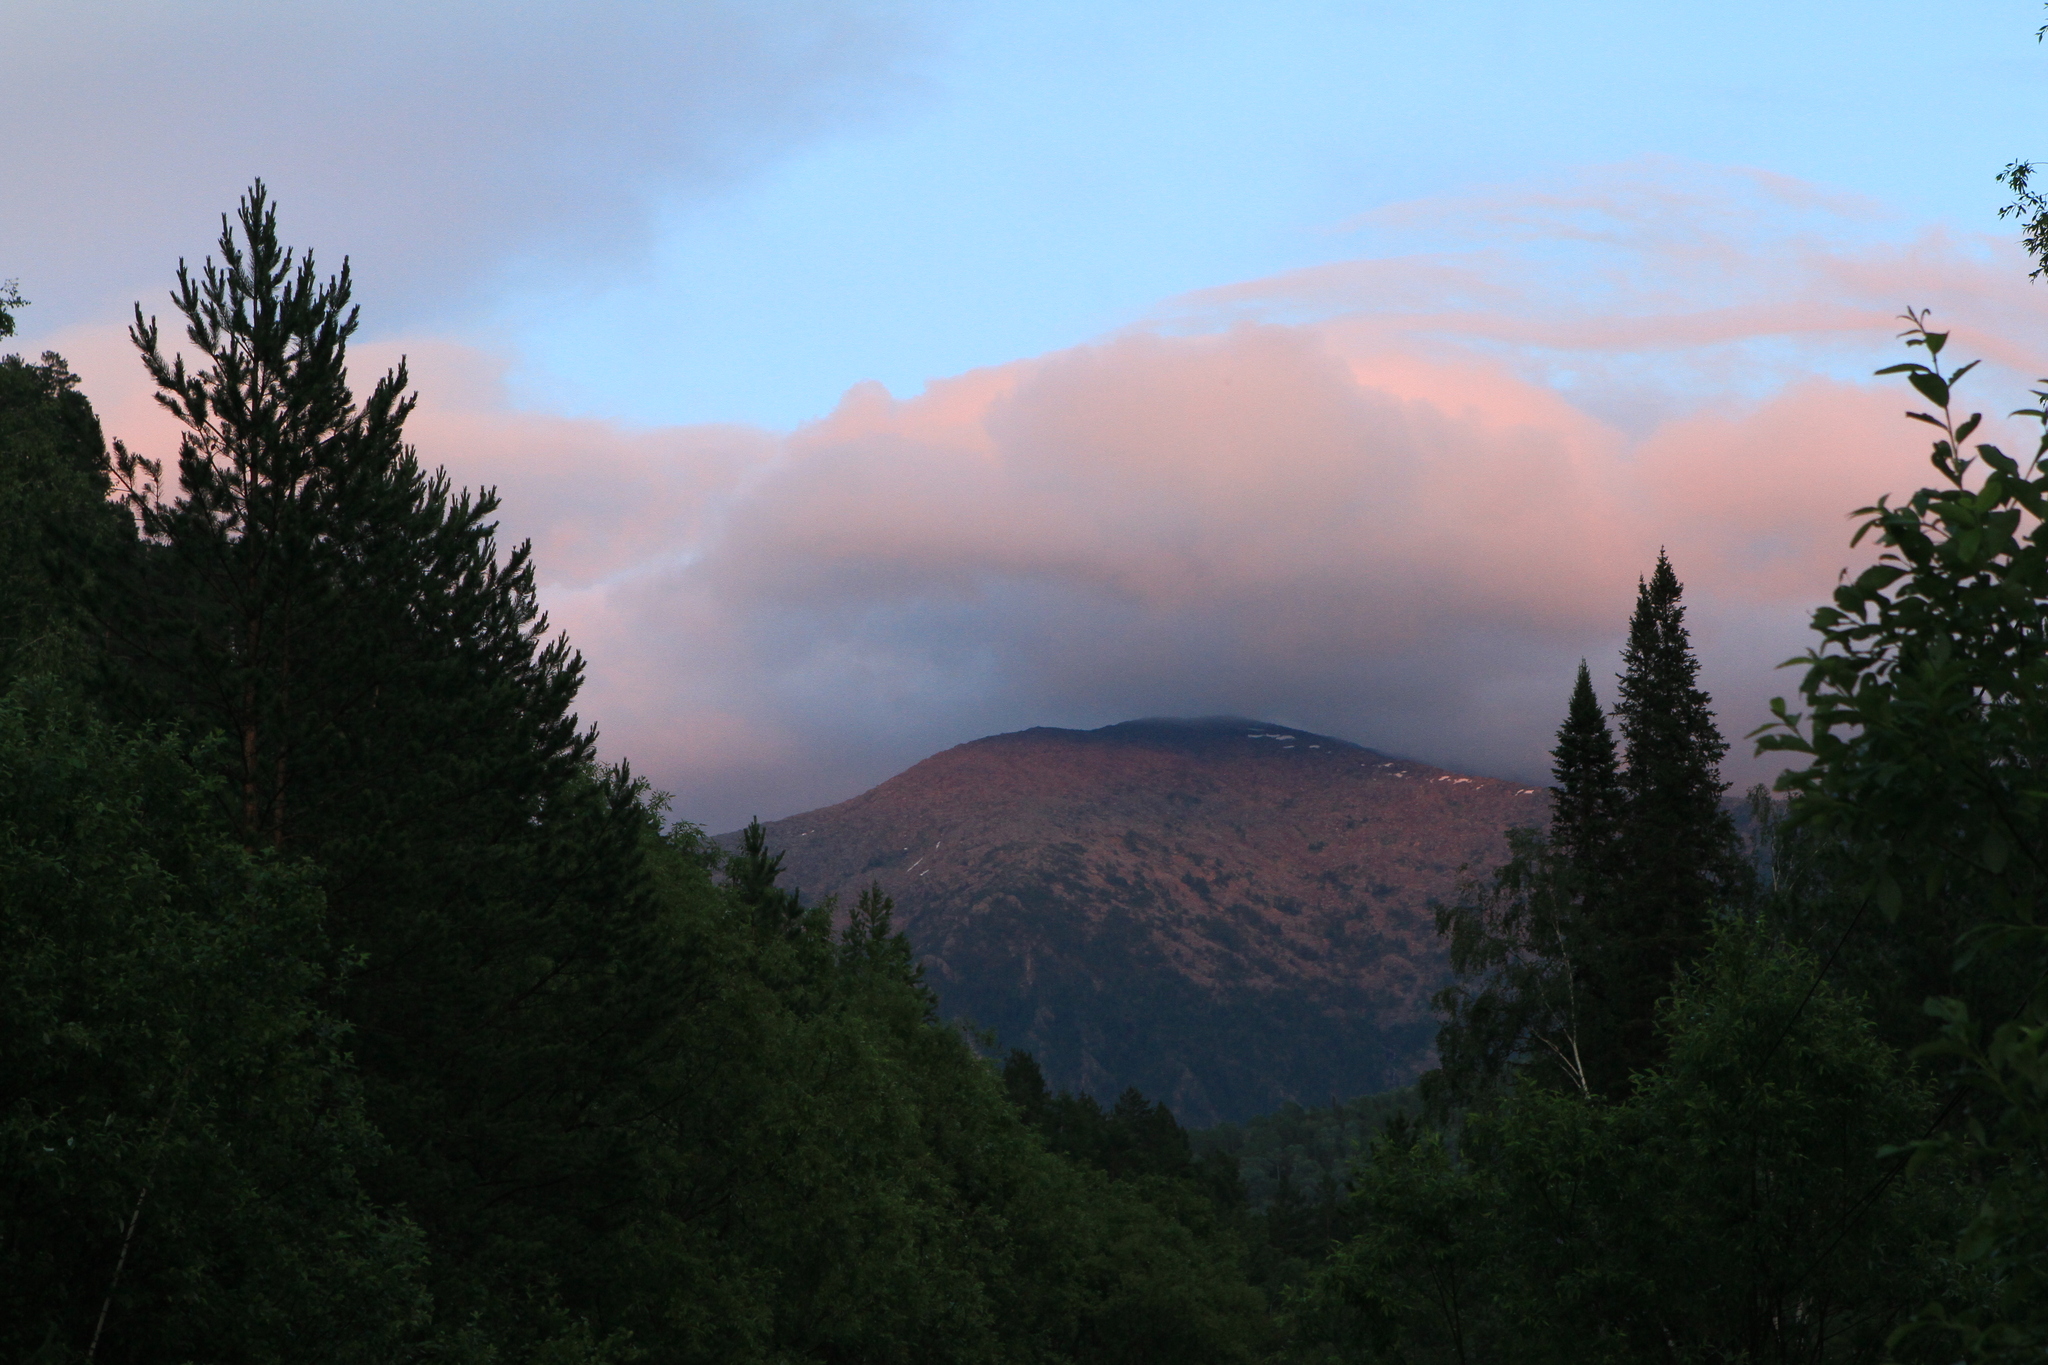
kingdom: Plantae
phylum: Tracheophyta
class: Pinopsida
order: Pinales
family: Pinaceae
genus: Pinus
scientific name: Pinus sylvestris
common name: Scots pine
